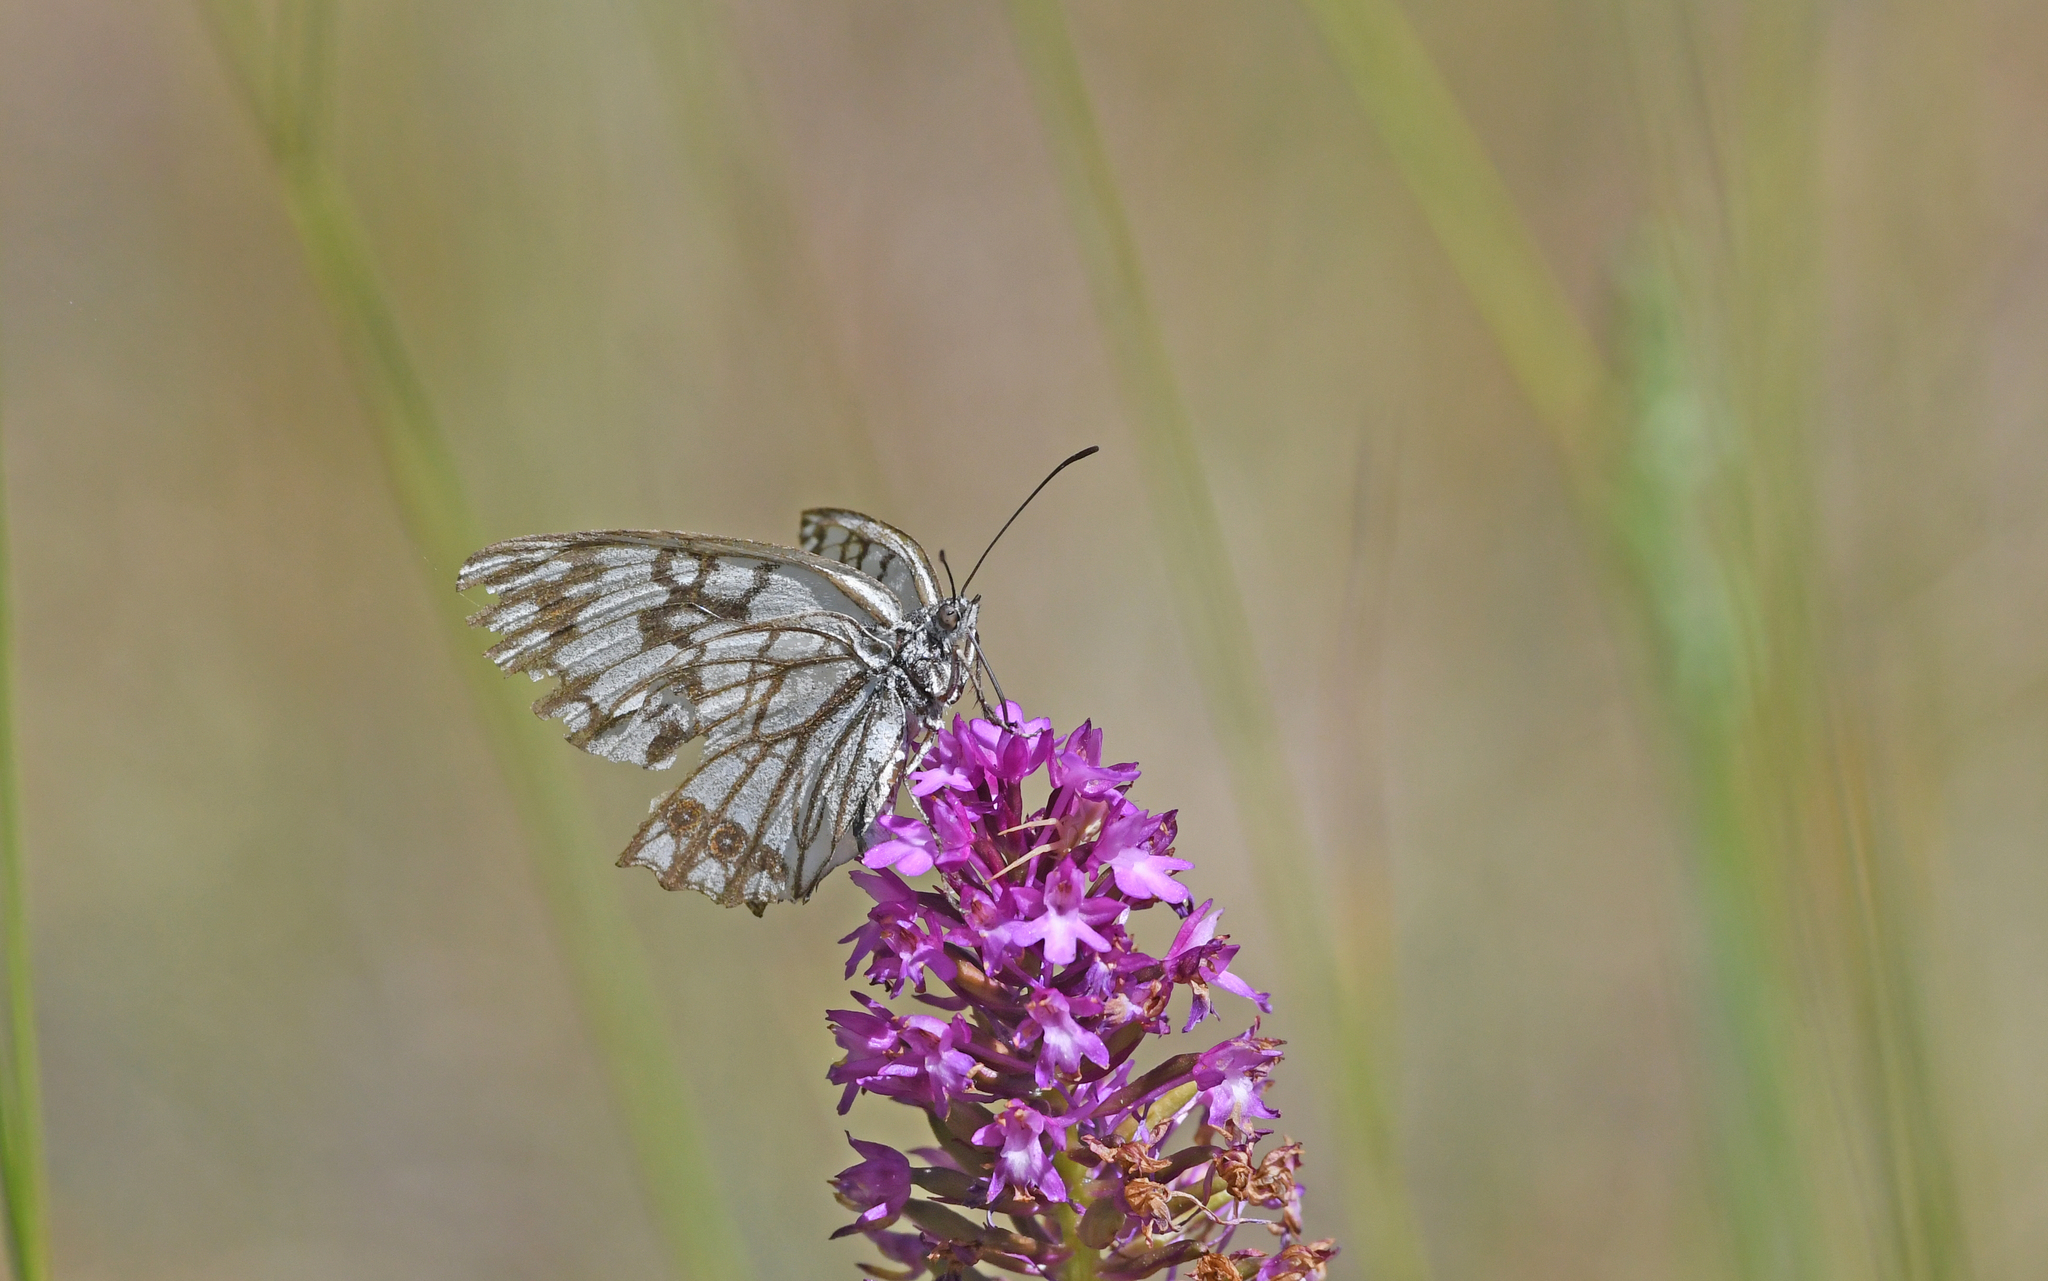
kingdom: Animalia
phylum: Arthropoda
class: Insecta
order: Lepidoptera
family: Nymphalidae
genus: Melanargia
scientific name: Melanargia occitanica
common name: Western marbled white
